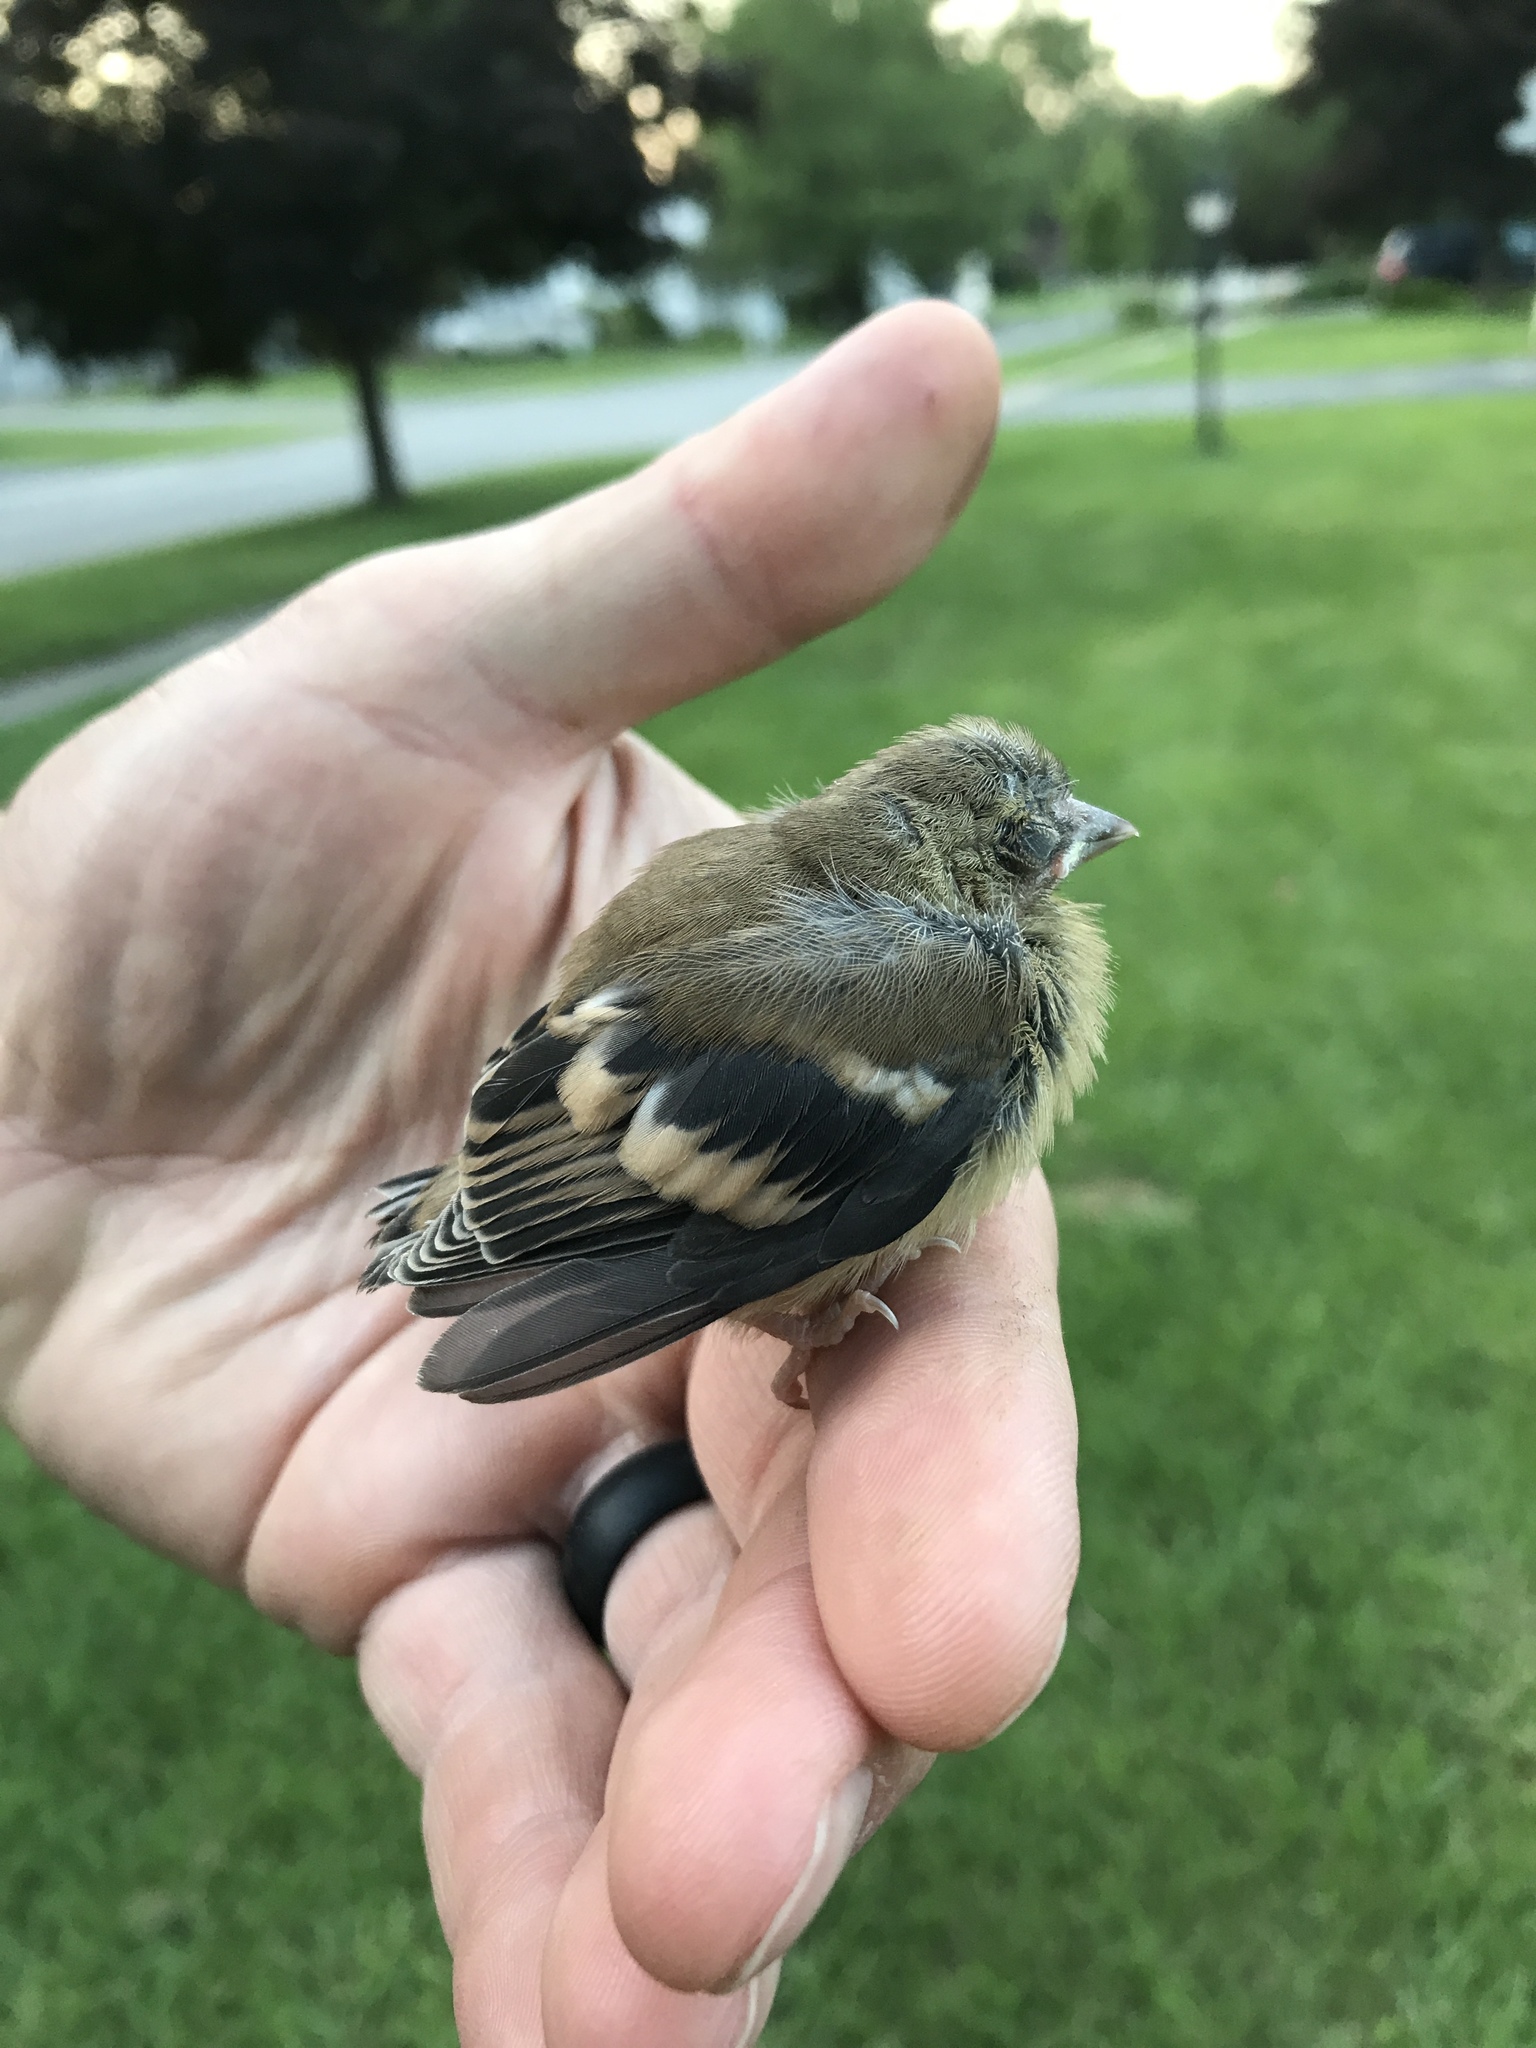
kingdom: Animalia
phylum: Chordata
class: Aves
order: Passeriformes
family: Fringillidae
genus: Spinus
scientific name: Spinus tristis
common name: American goldfinch
